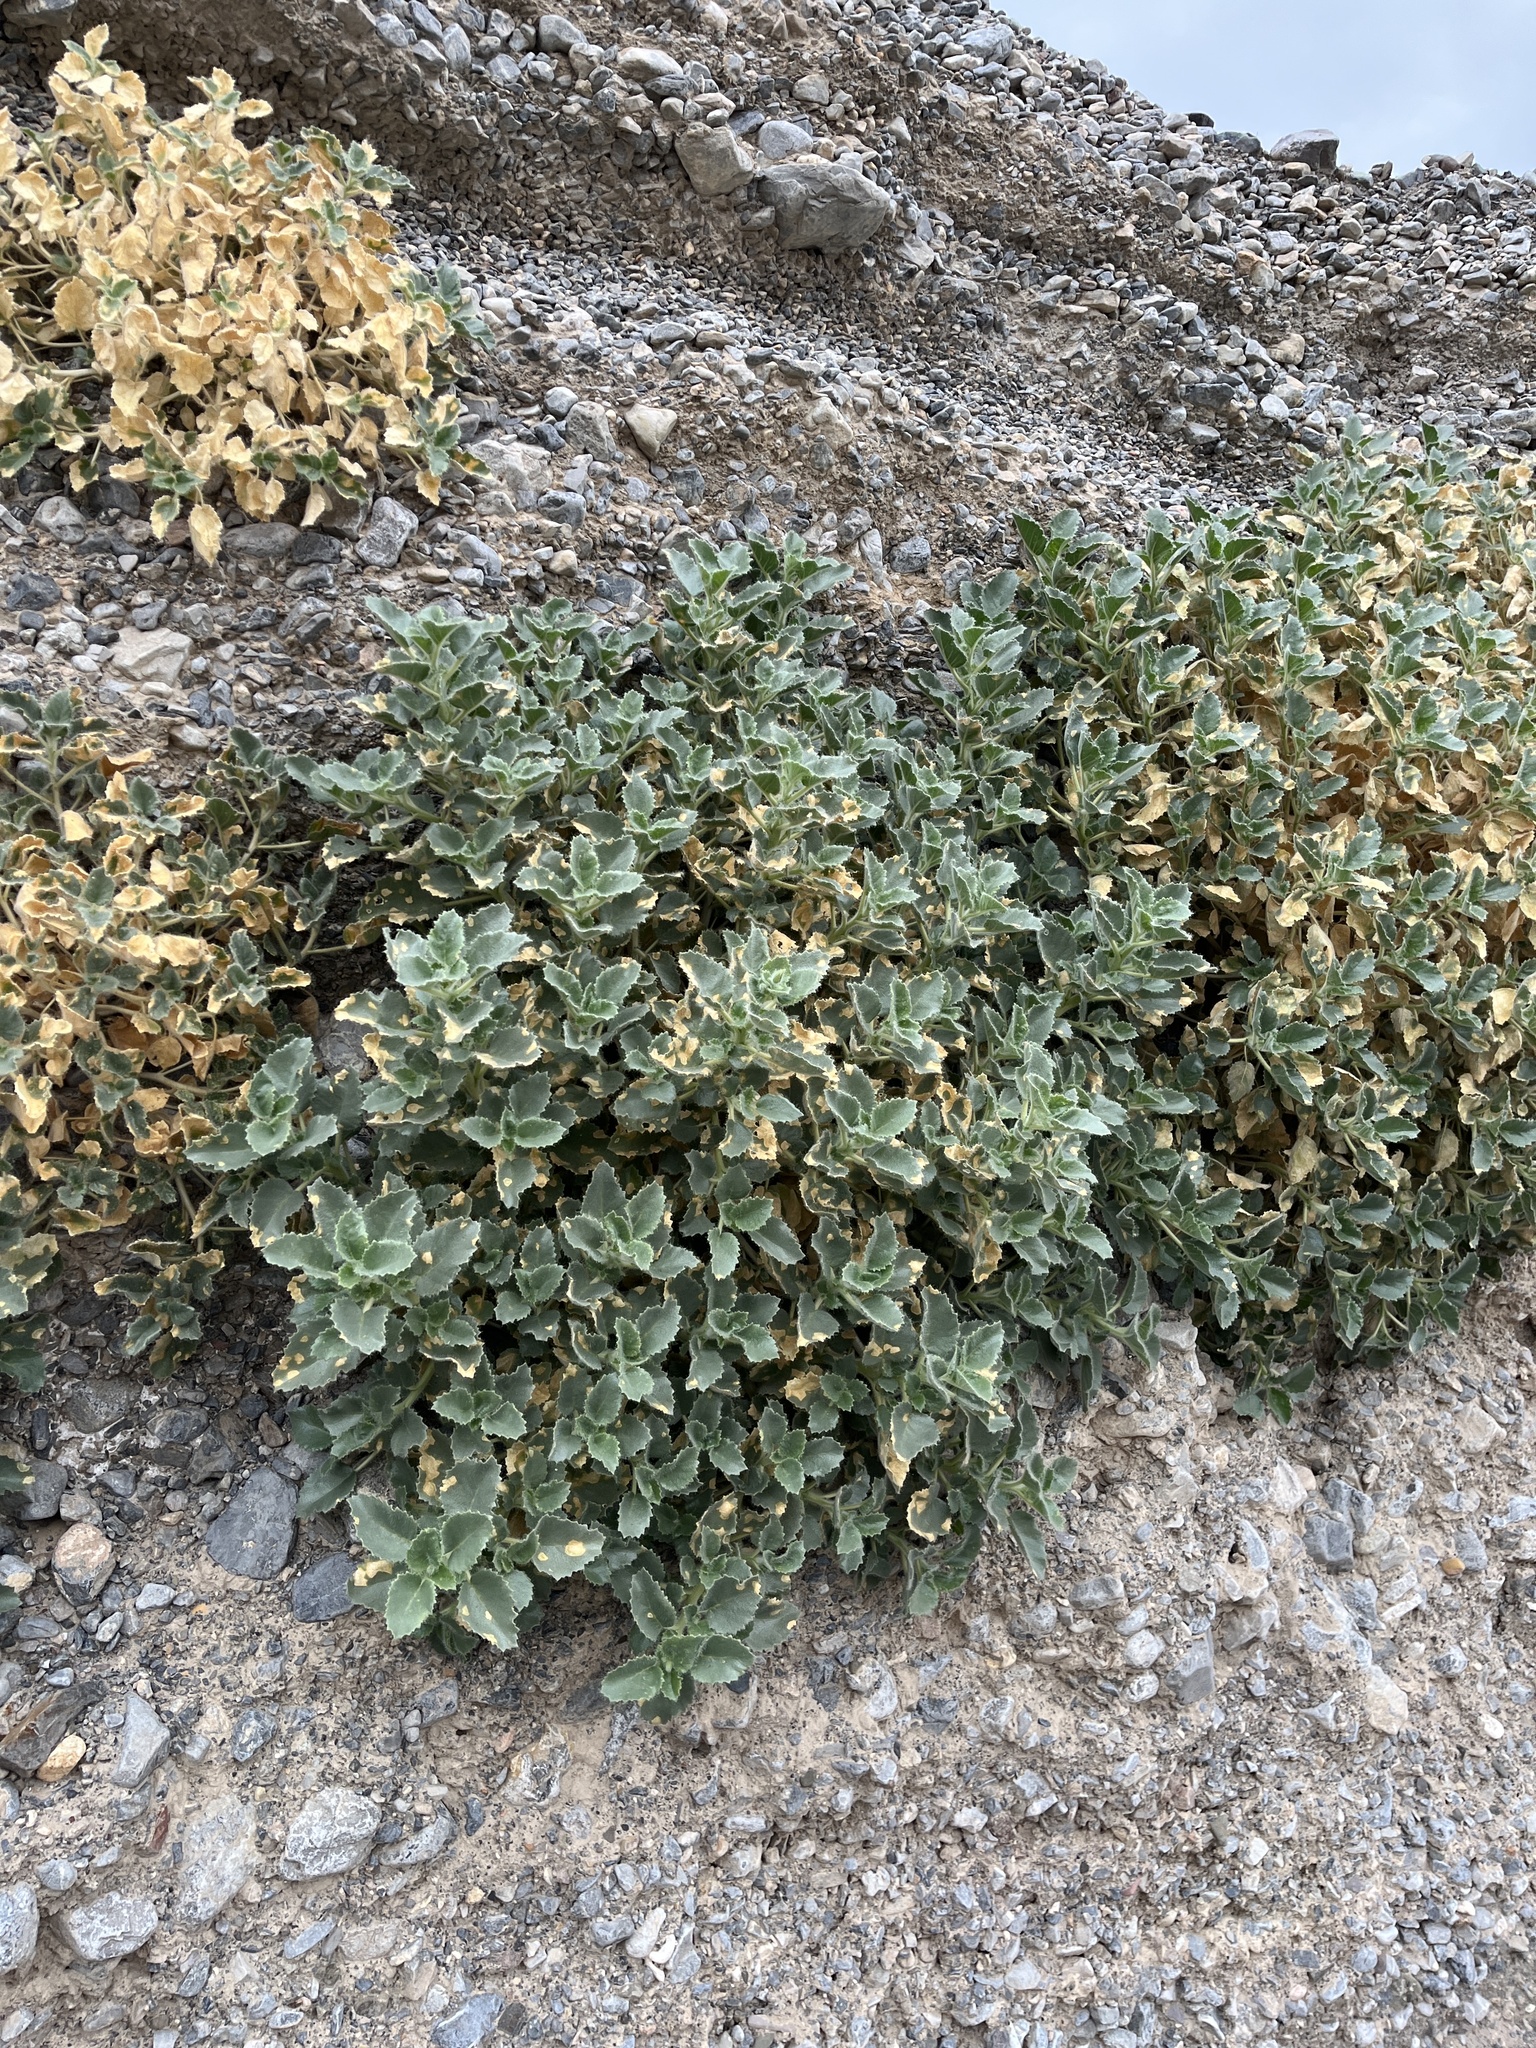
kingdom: Plantae
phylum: Tracheophyta
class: Magnoliopsida
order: Cornales
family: Loasaceae
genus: Eucnide
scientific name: Eucnide urens
